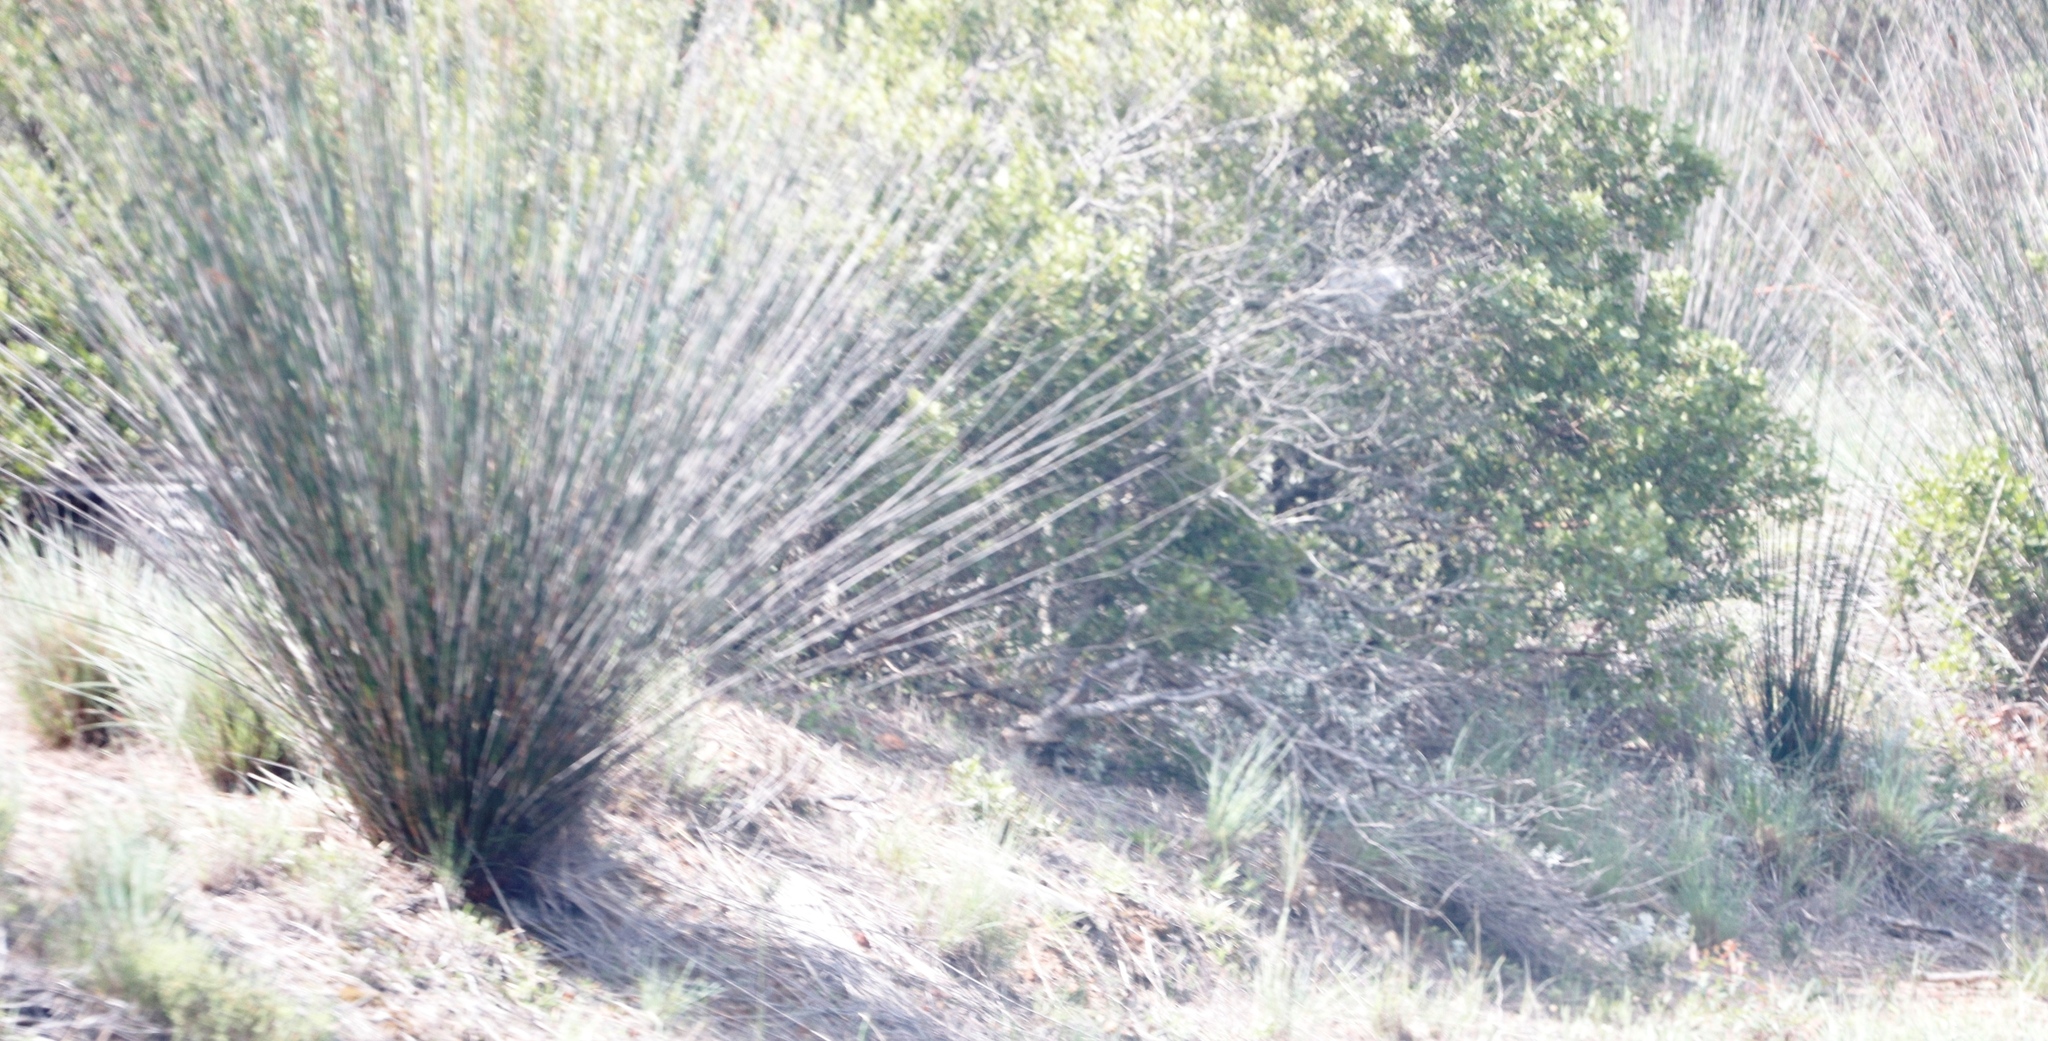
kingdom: Plantae
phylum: Tracheophyta
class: Liliopsida
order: Poales
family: Restionaceae
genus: Thamnochortus
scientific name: Thamnochortus insignis
